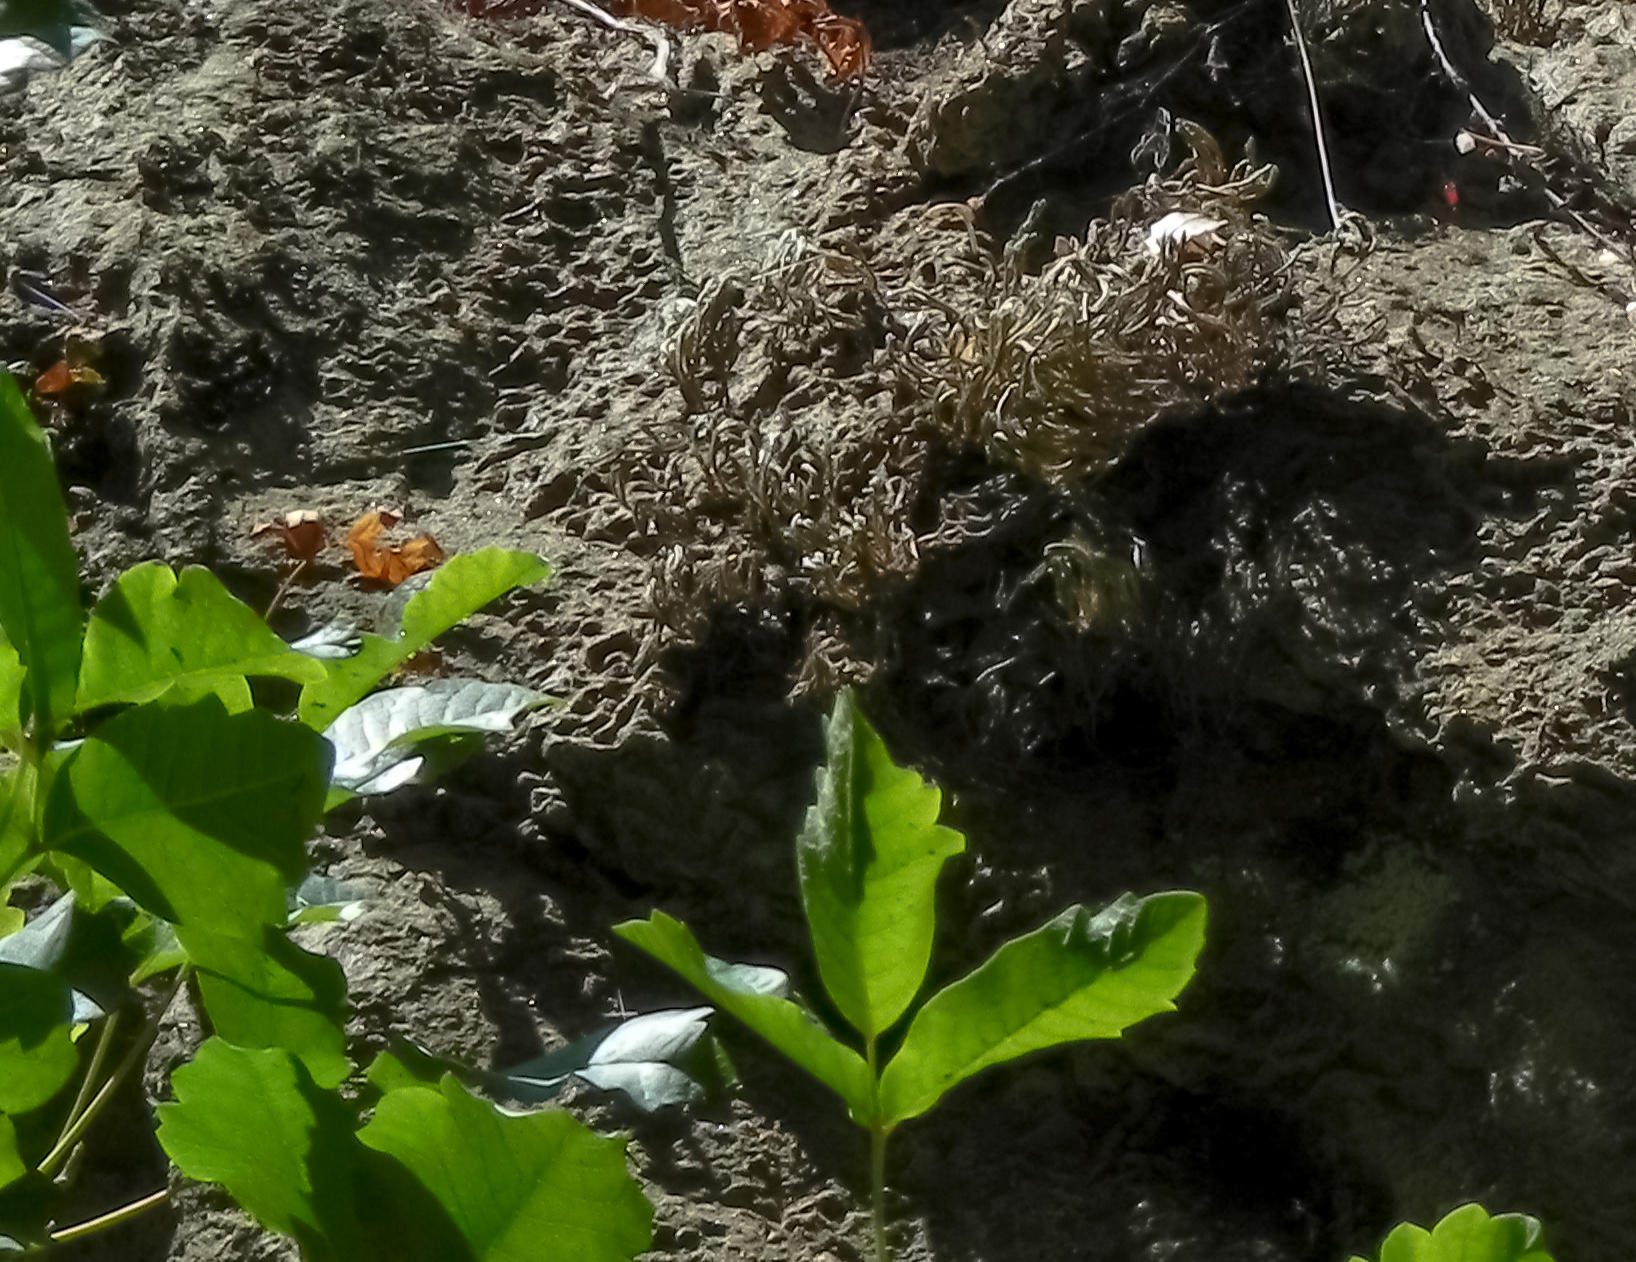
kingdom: Plantae
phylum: Tracheophyta
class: Magnoliopsida
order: Sapindales
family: Anacardiaceae
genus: Toxicodendron
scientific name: Toxicodendron diversilobum
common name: Pacific poison-oak
